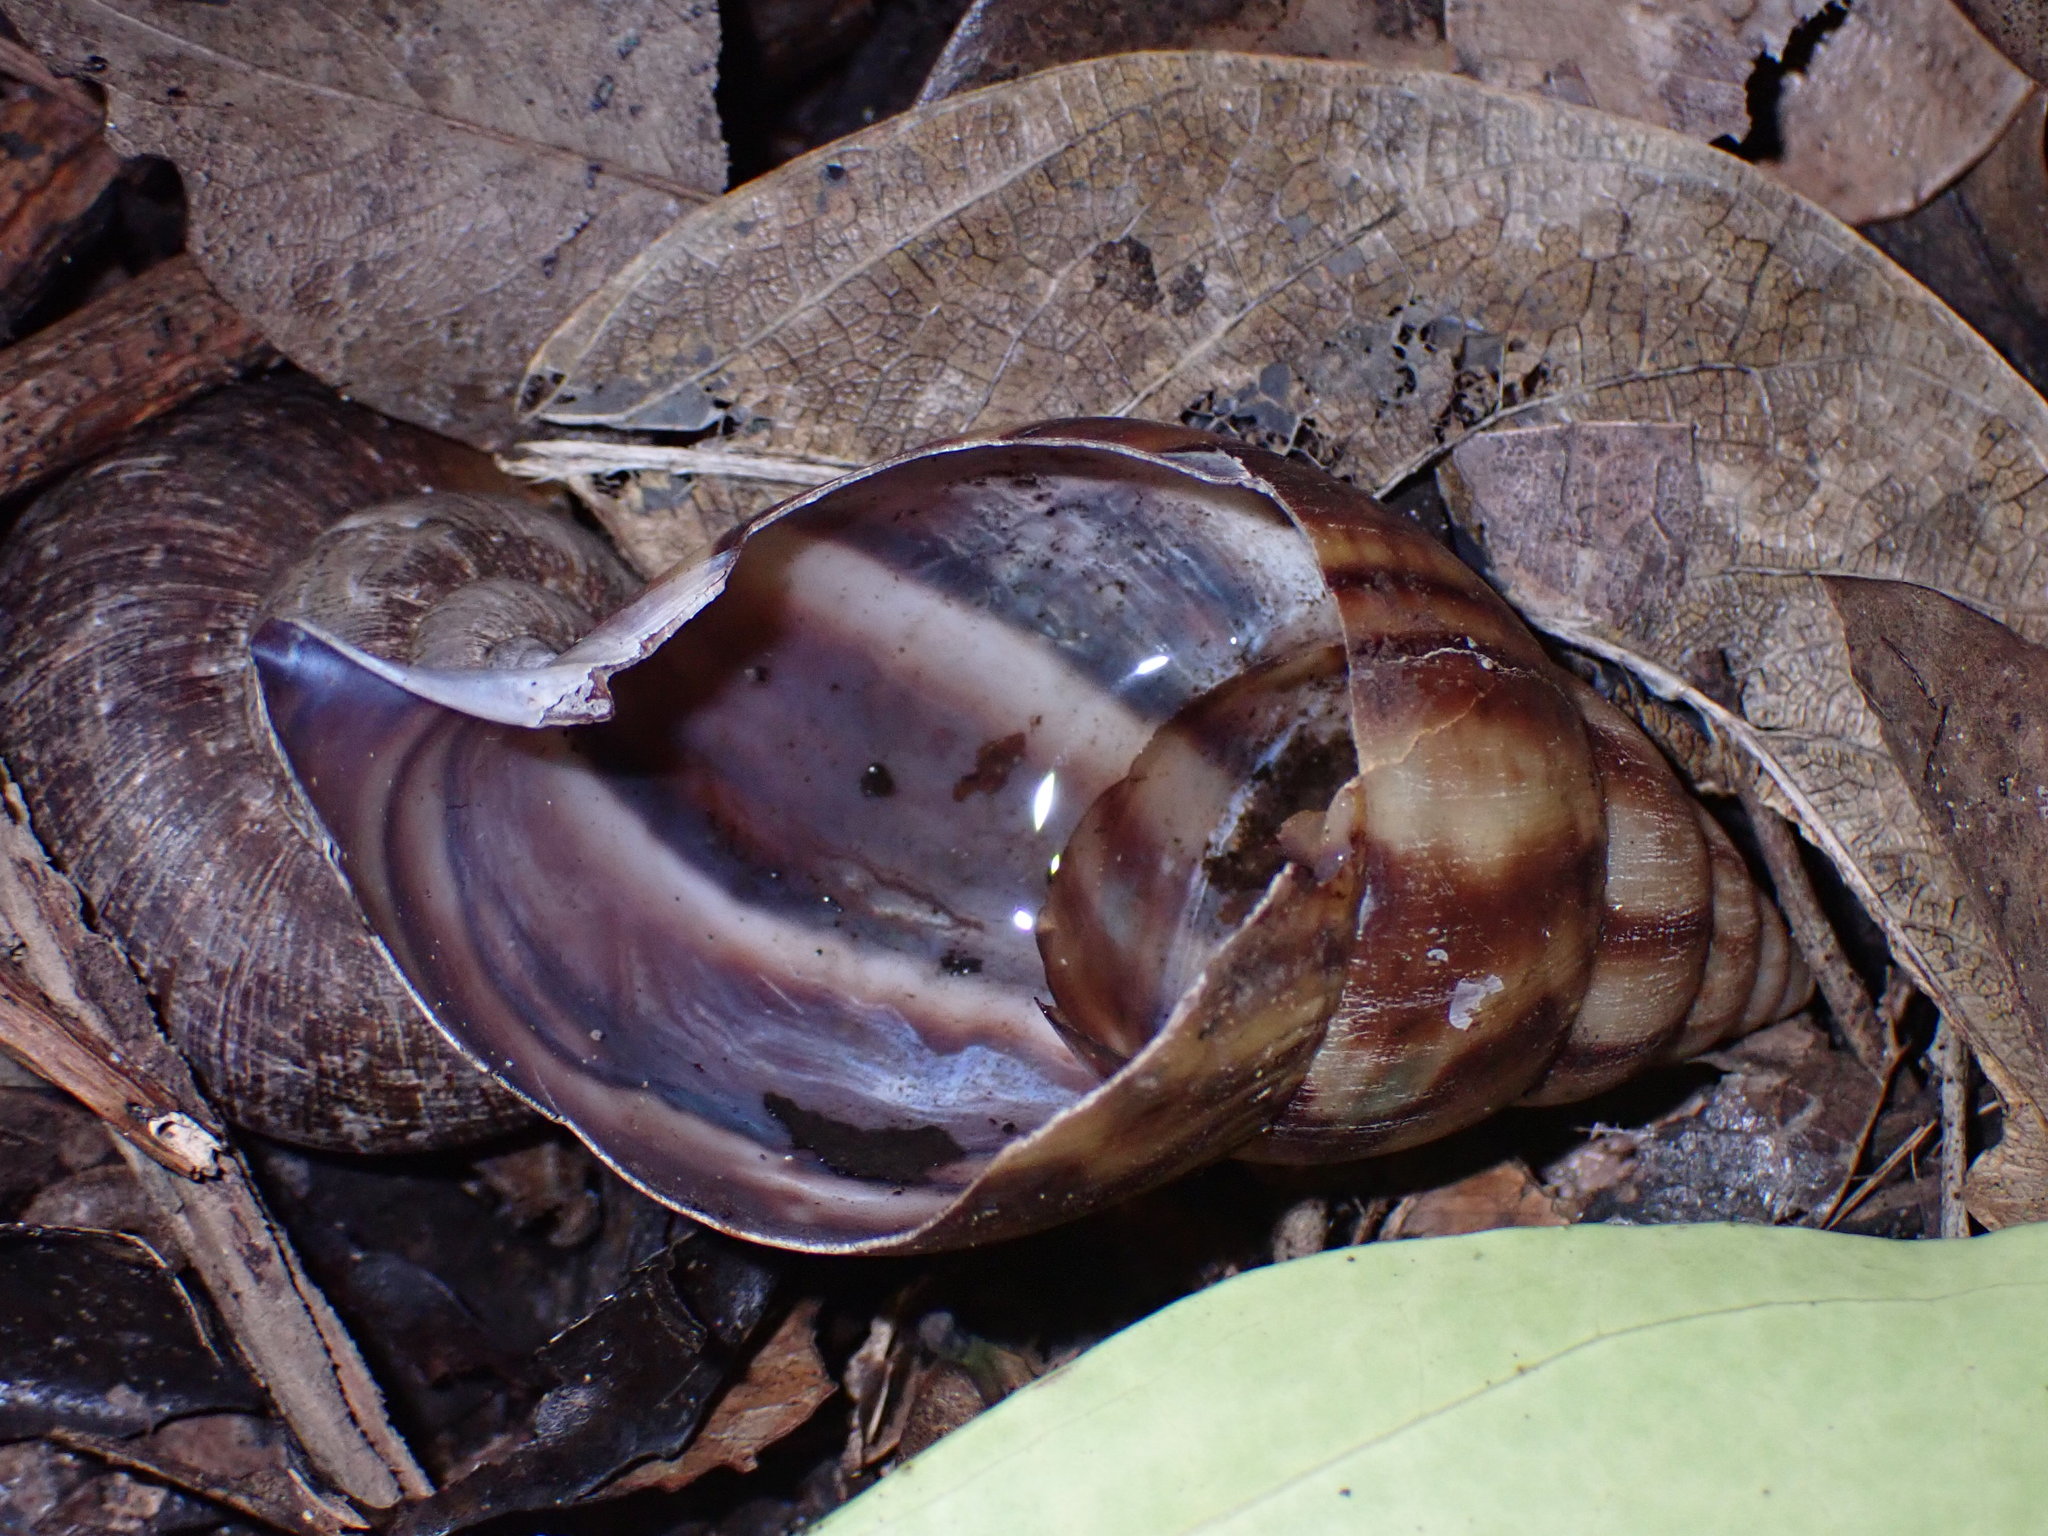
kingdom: Animalia
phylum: Mollusca
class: Gastropoda
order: Stylommatophora
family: Achatinidae
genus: Lissachatina
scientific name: Lissachatina fulica
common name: Giant african snail
